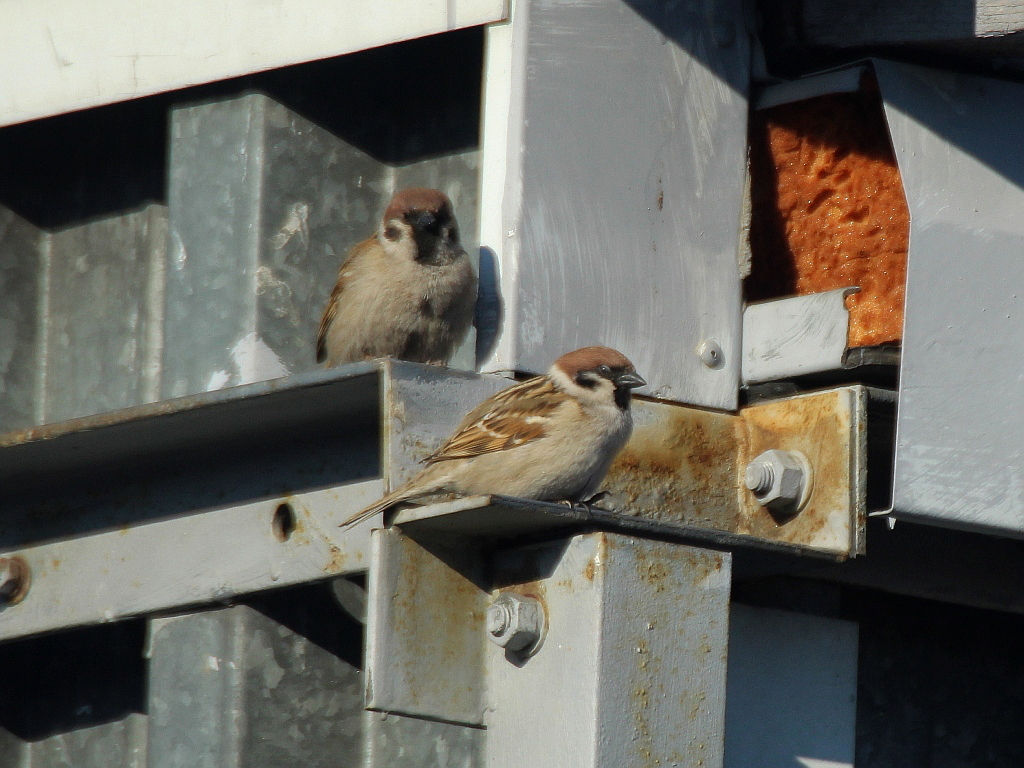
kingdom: Animalia
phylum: Chordata
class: Aves
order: Passeriformes
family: Passeridae
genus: Passer
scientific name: Passer montanus
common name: Eurasian tree sparrow
